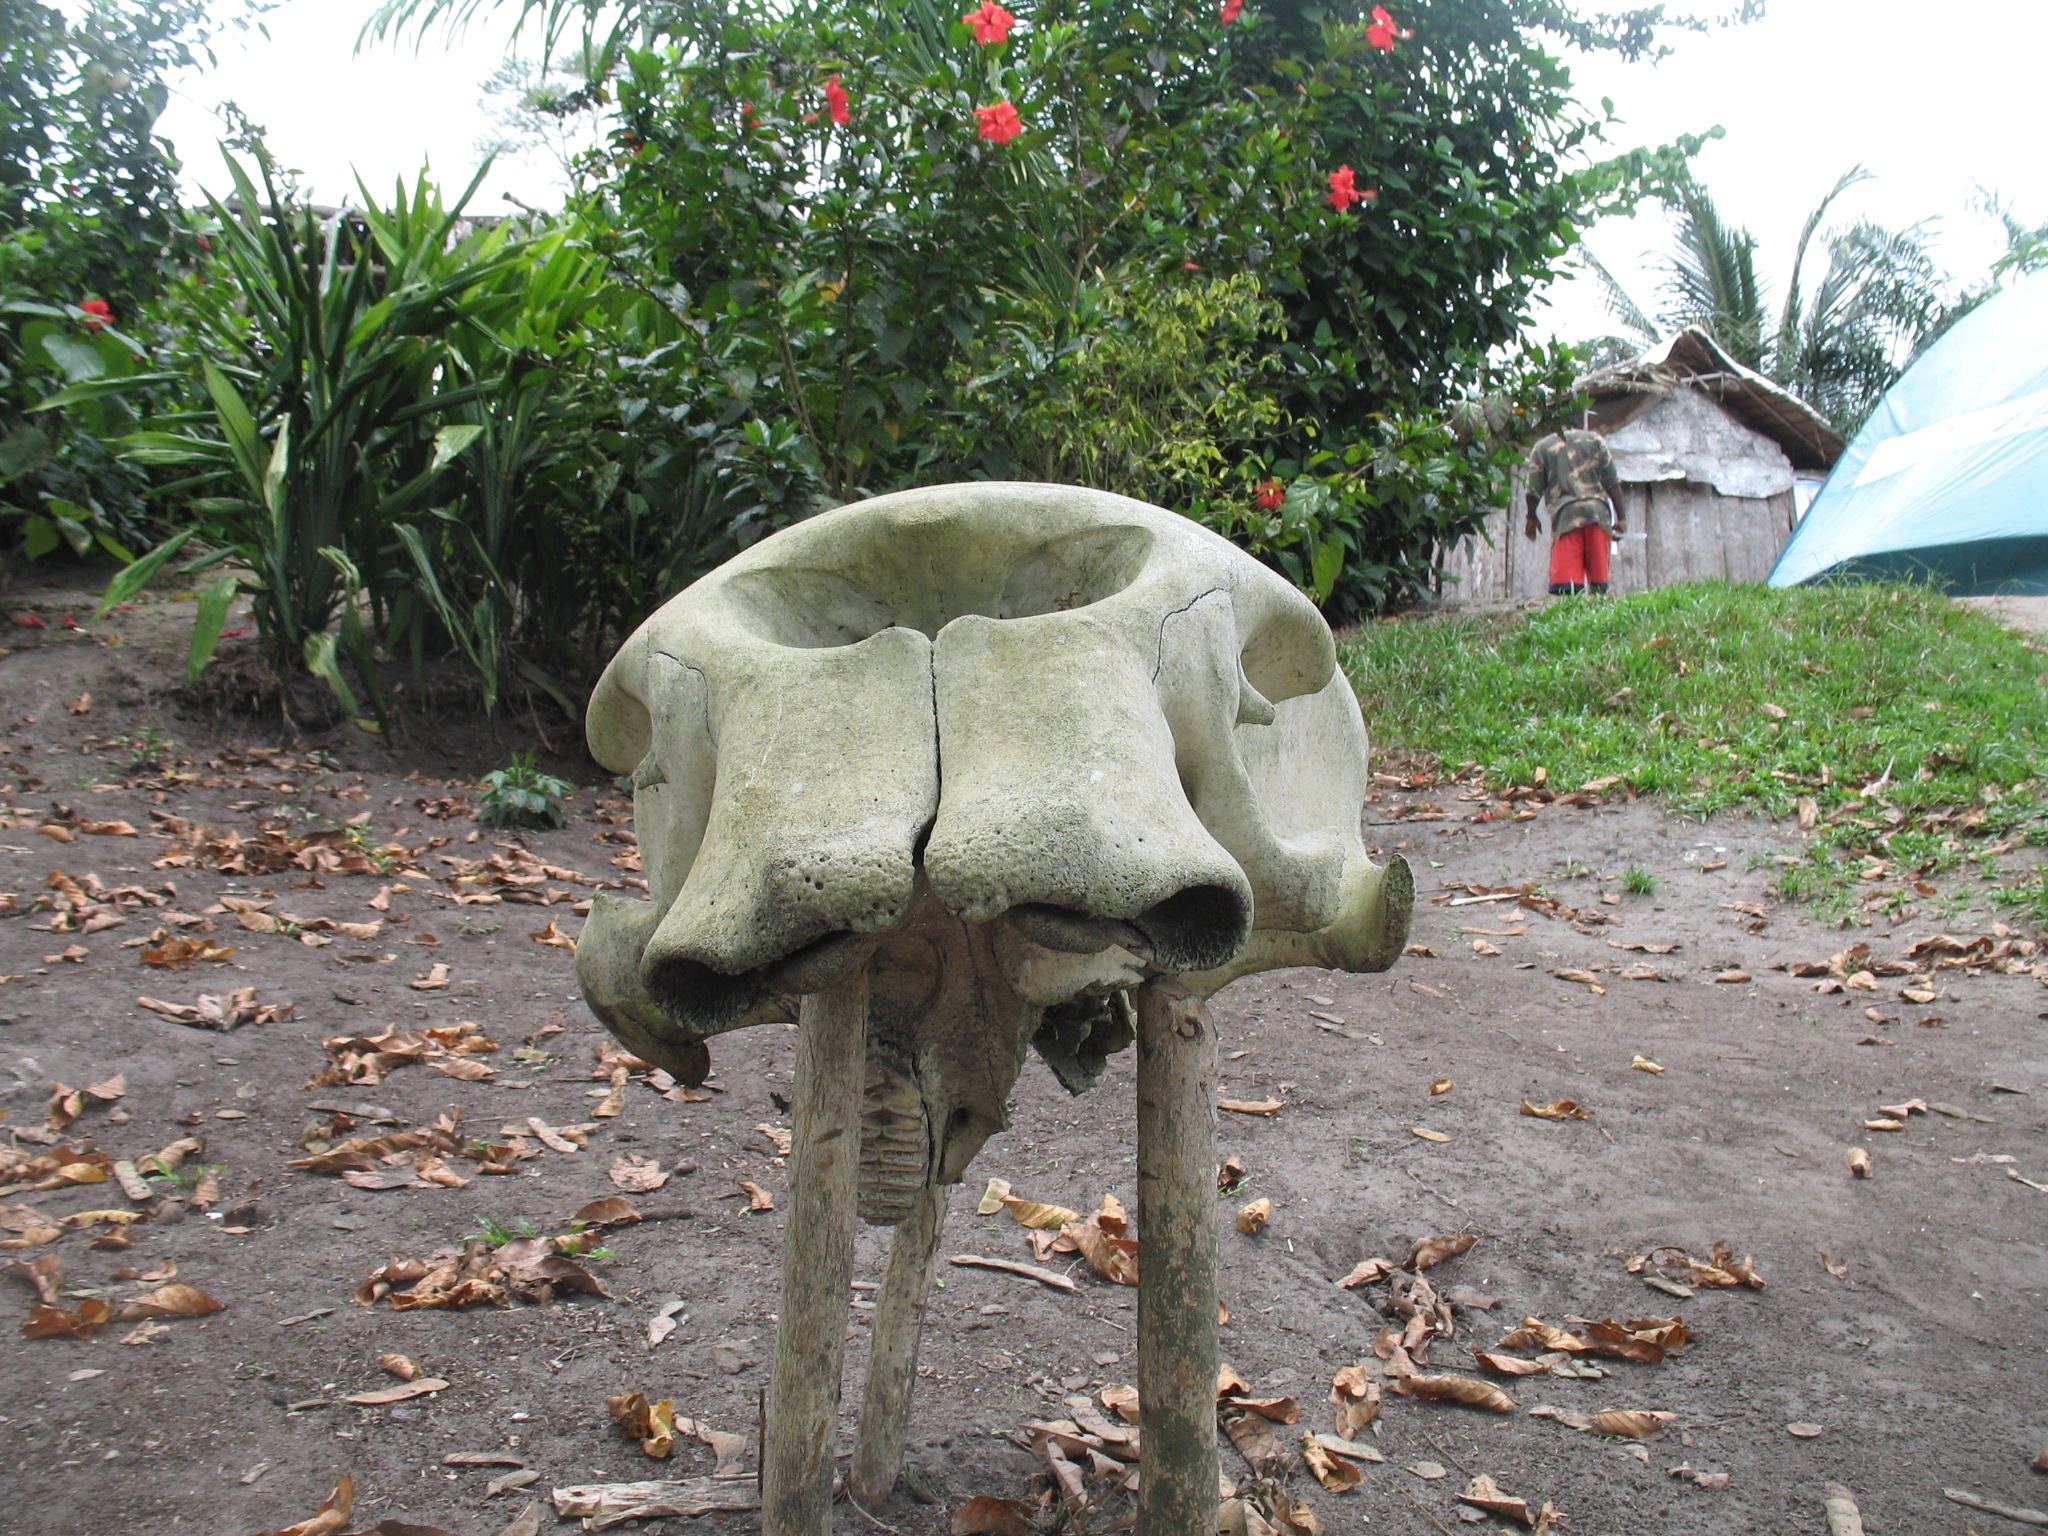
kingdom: Animalia
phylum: Chordata
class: Mammalia
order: Proboscidea
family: Elephantidae
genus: Loxodonta
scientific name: Loxodonta cyclotis
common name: African forest elephant
